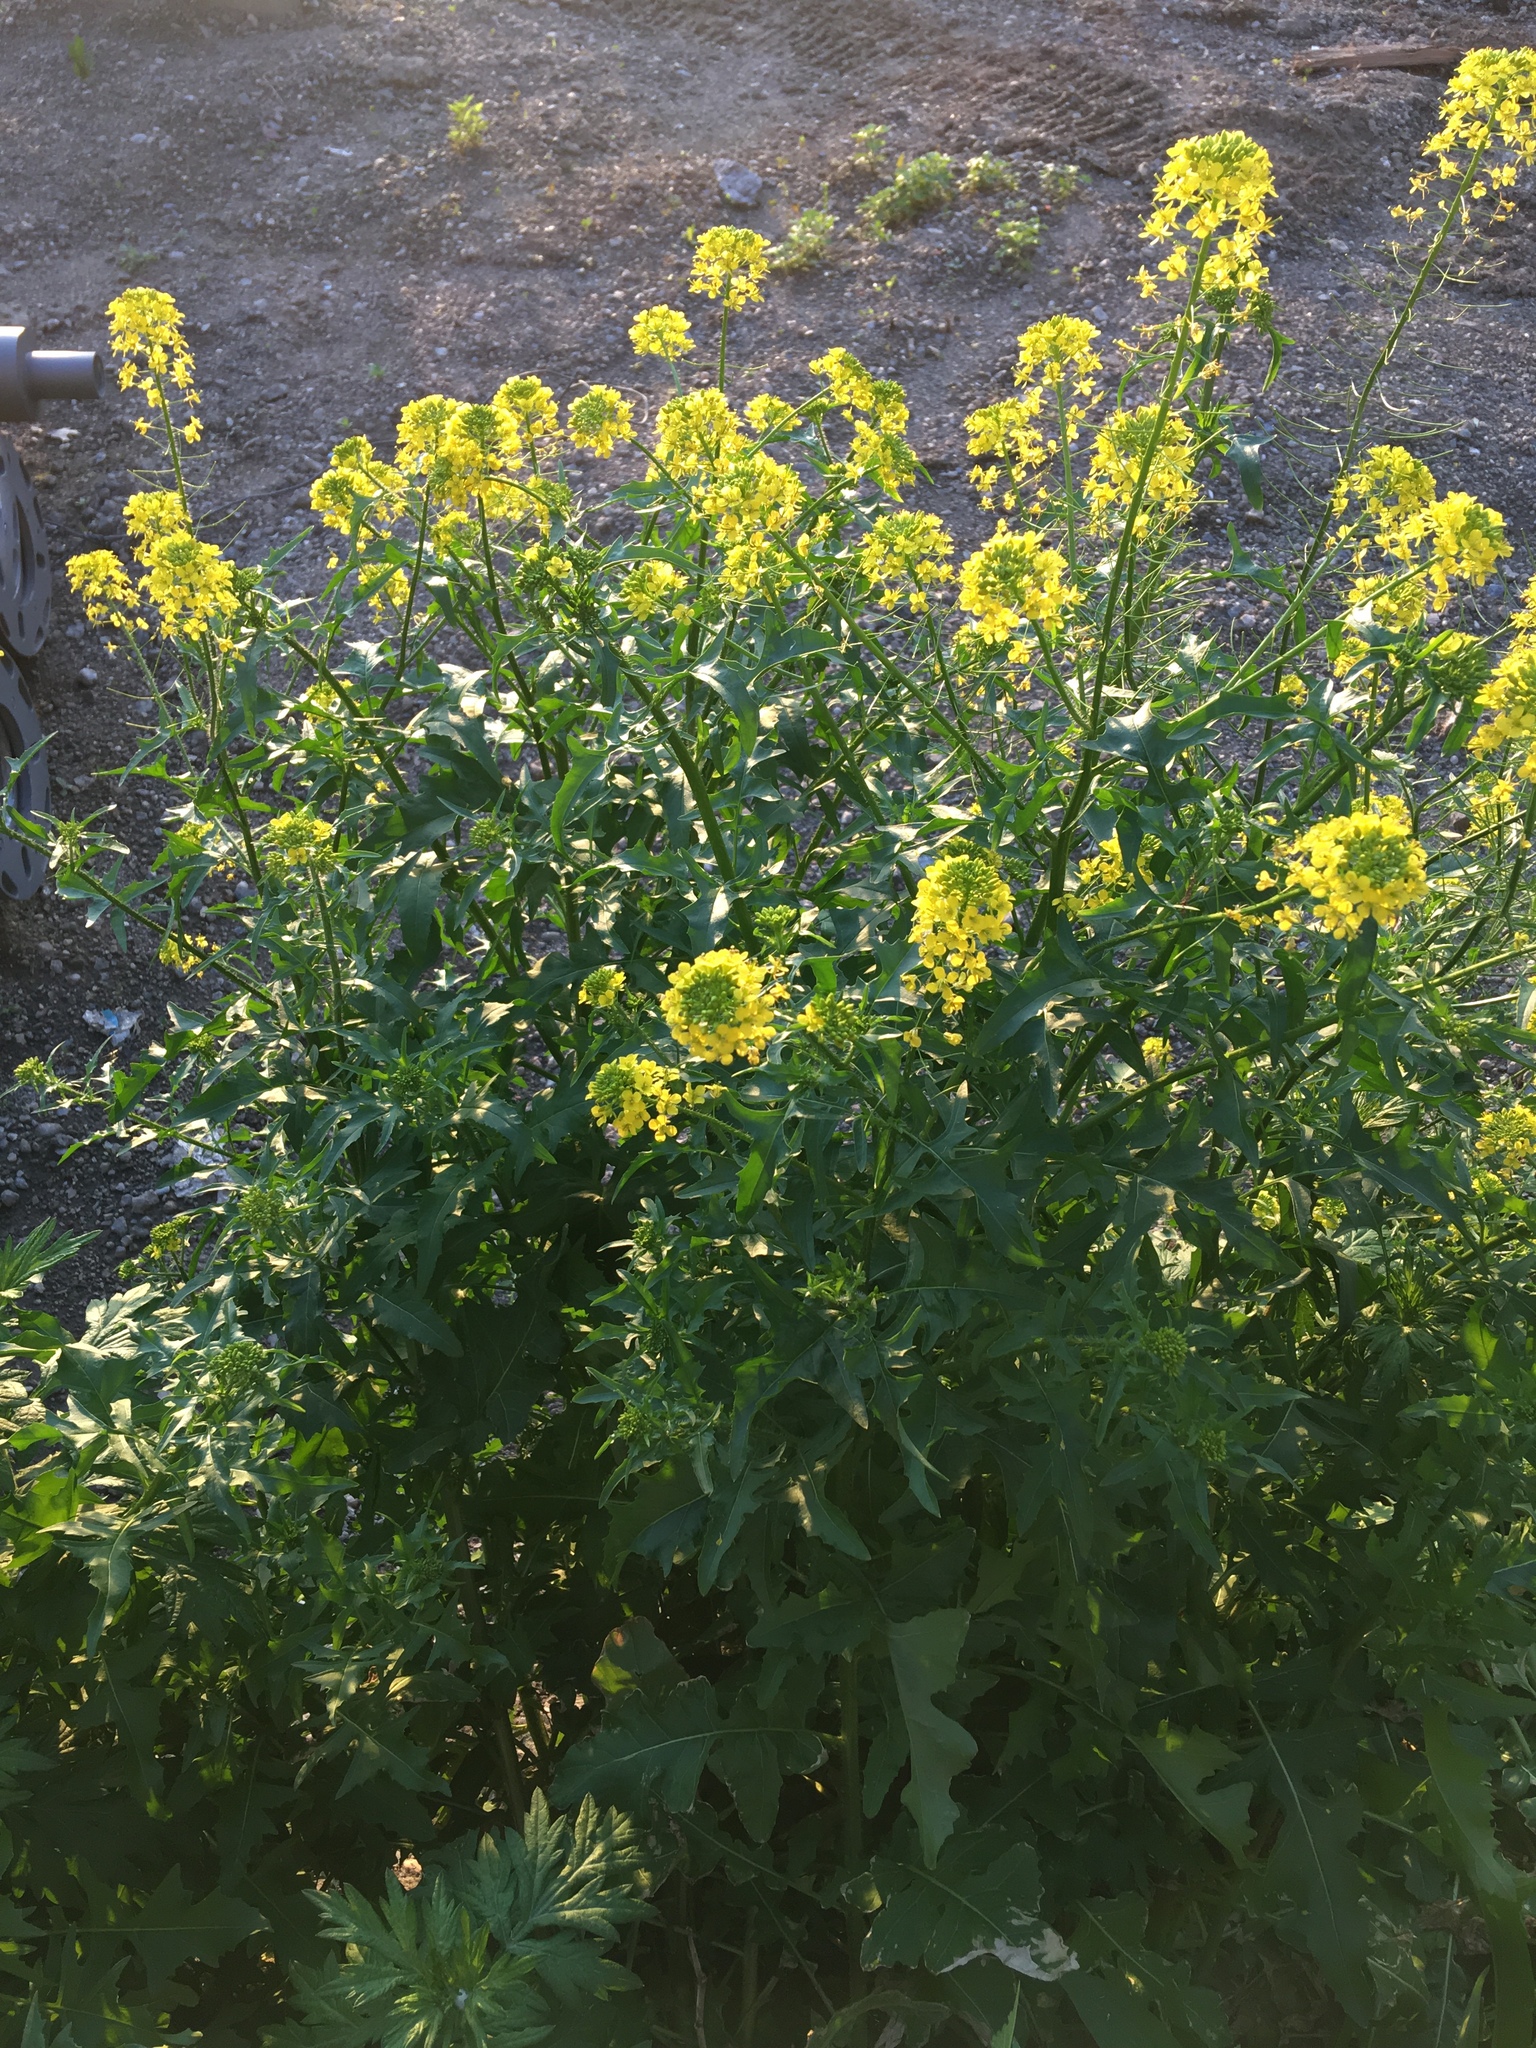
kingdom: Plantae
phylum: Tracheophyta
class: Magnoliopsida
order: Brassicales
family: Brassicaceae
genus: Sisymbrium
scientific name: Sisymbrium loeselii
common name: False london-rocket
